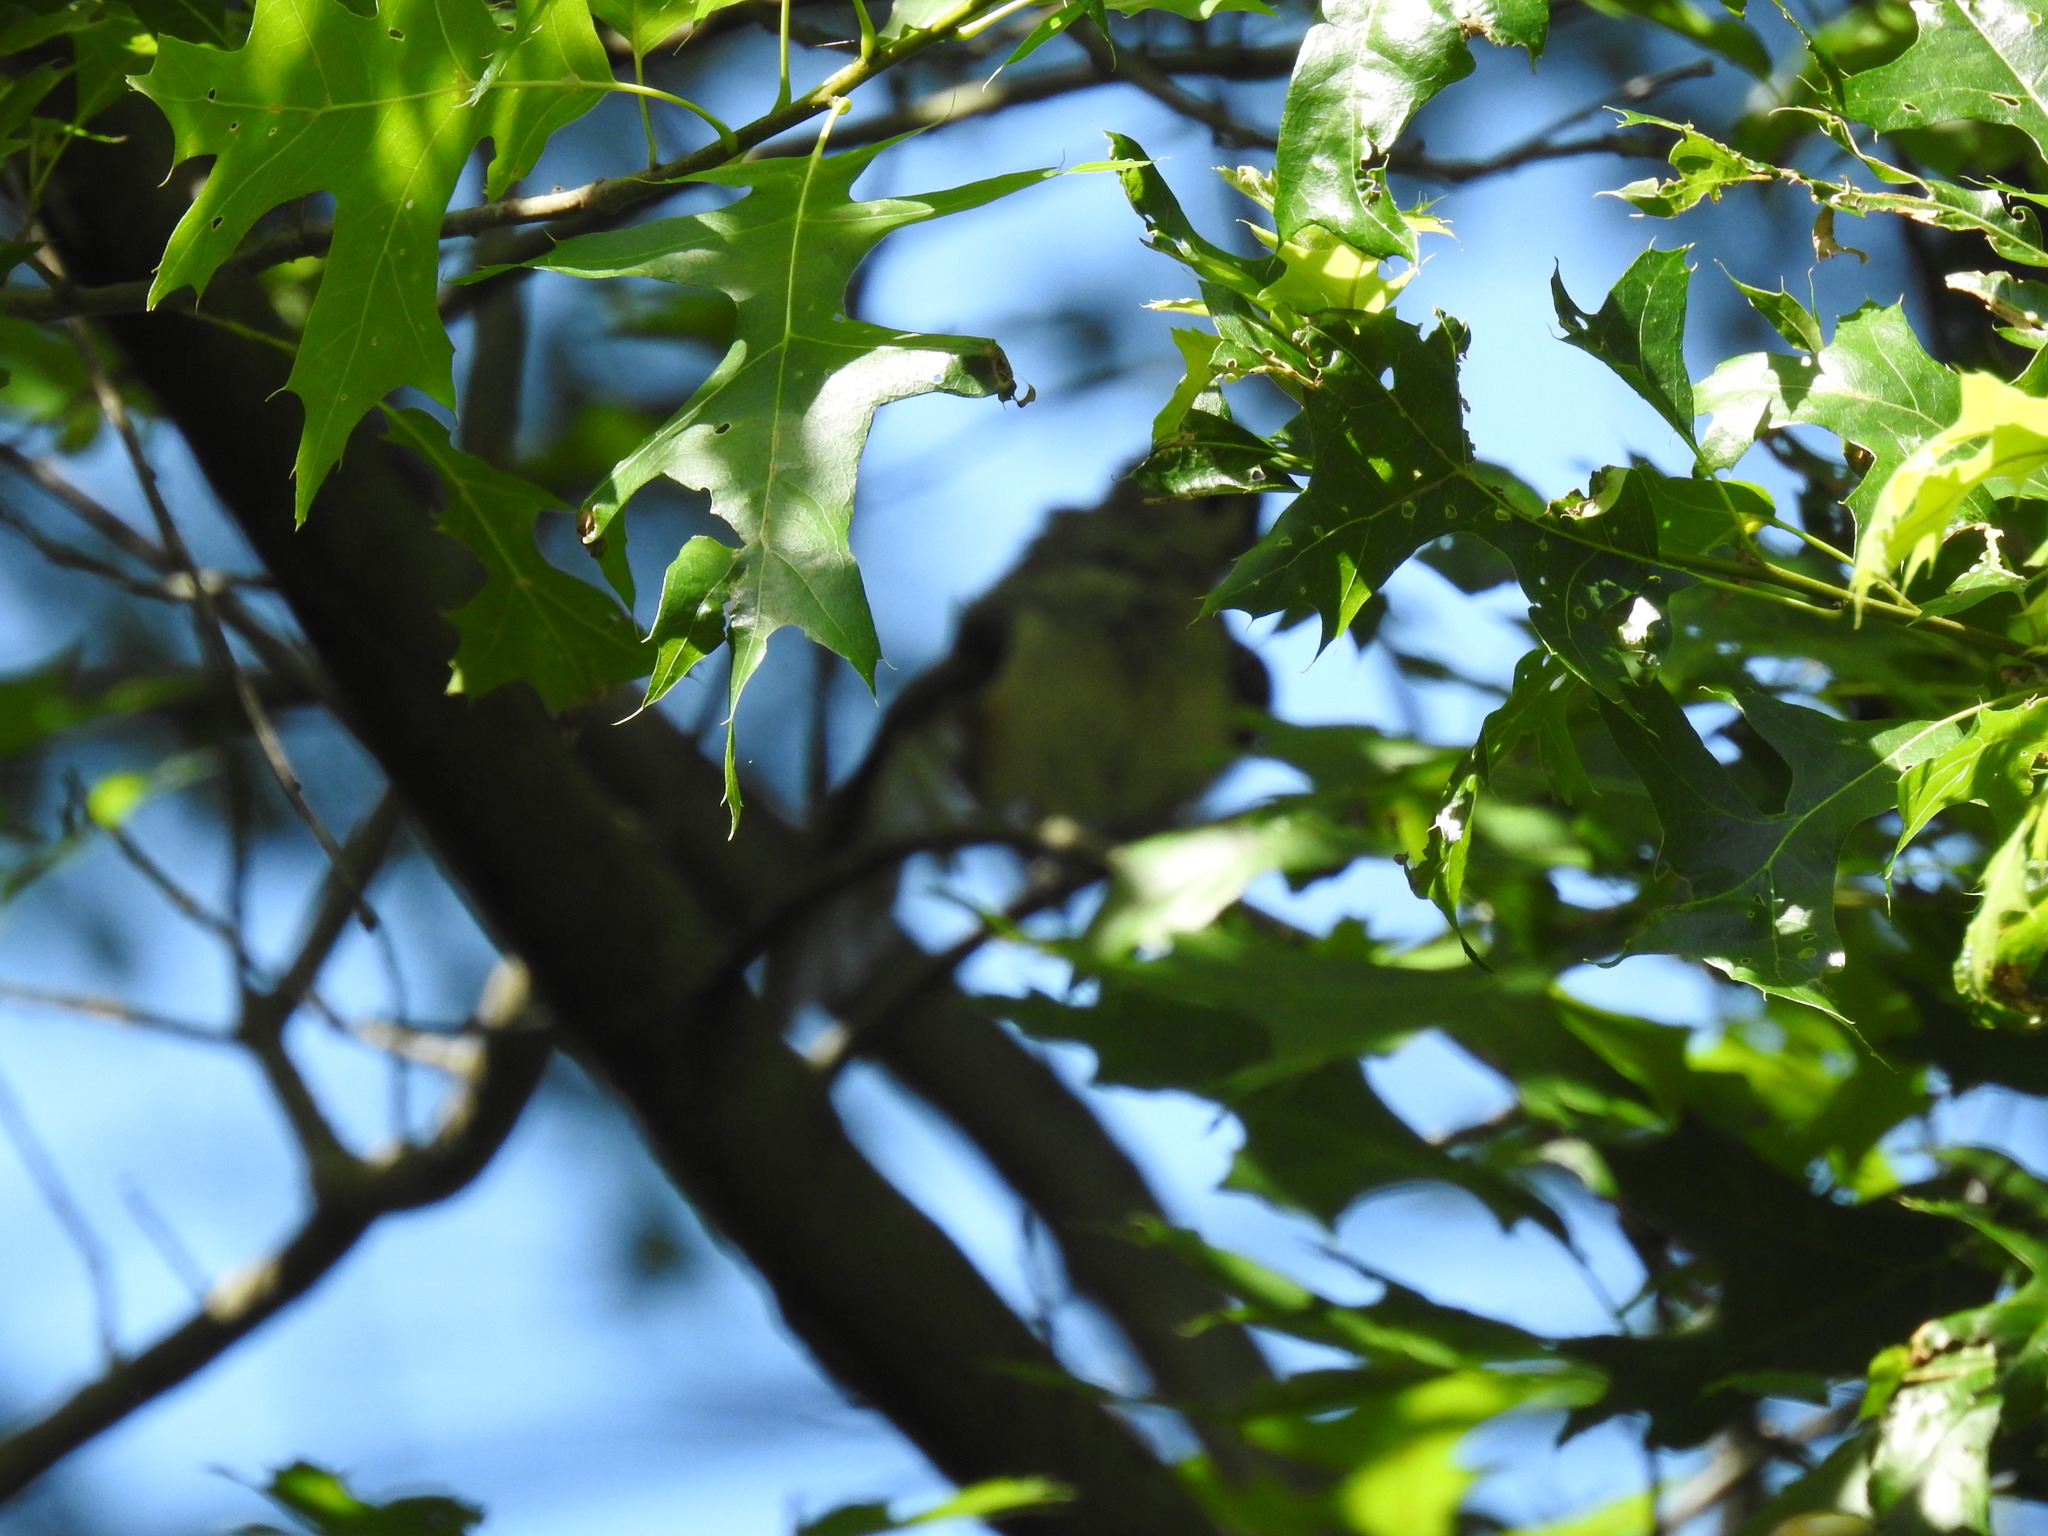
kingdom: Animalia
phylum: Chordata
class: Aves
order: Passeriformes
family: Paridae
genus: Baeolophus
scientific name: Baeolophus bicolor
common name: Tufted titmouse
